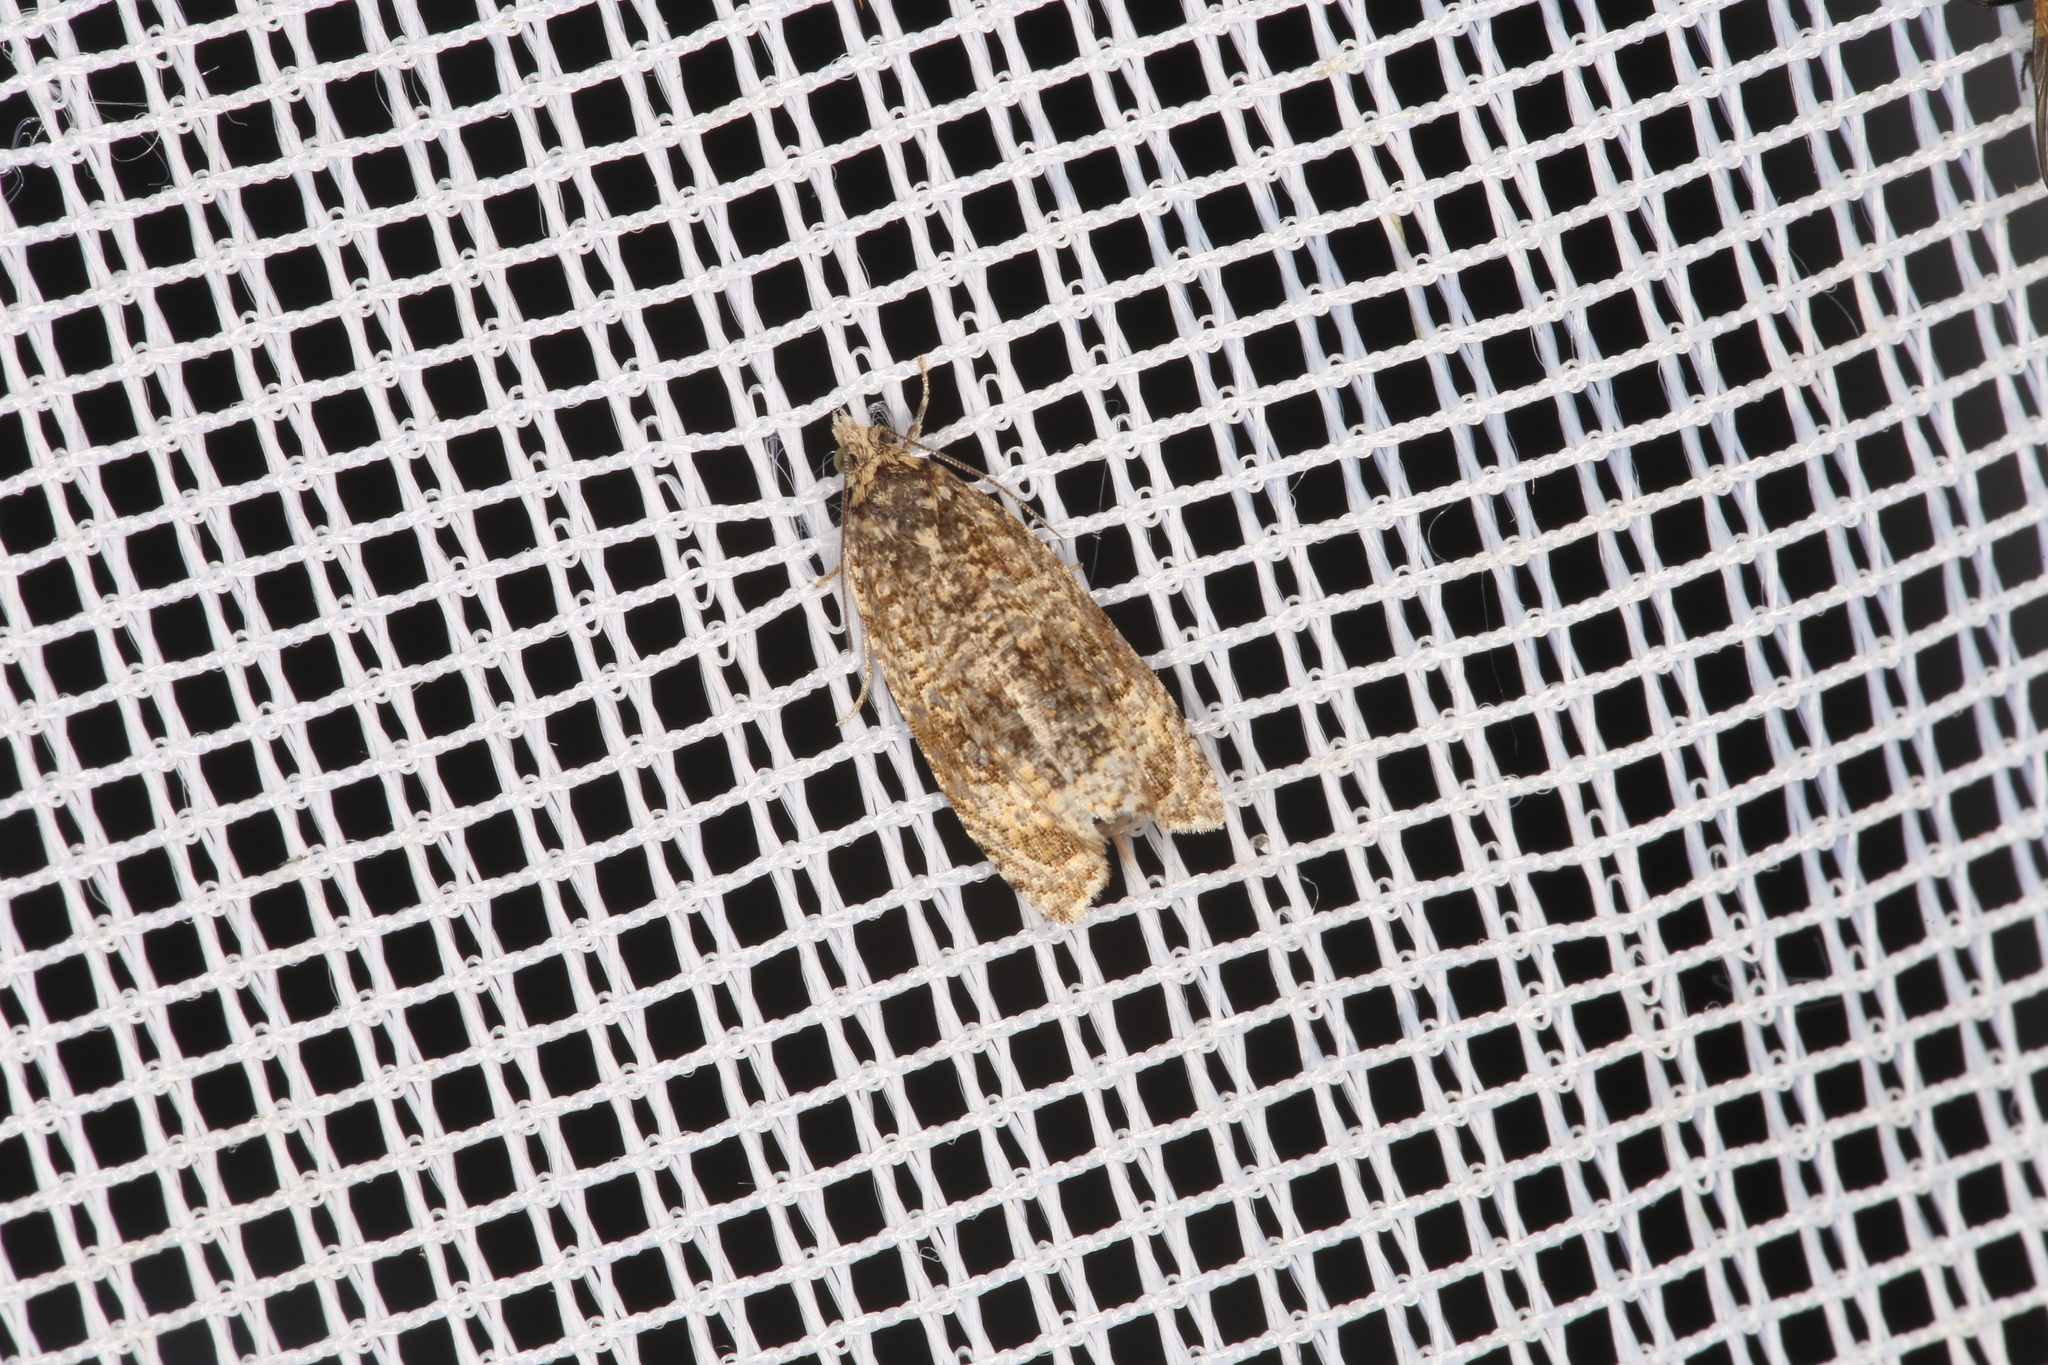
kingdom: Animalia
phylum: Arthropoda
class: Insecta
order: Lepidoptera
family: Tortricidae
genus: Syricoris
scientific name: Syricoris lacunana
